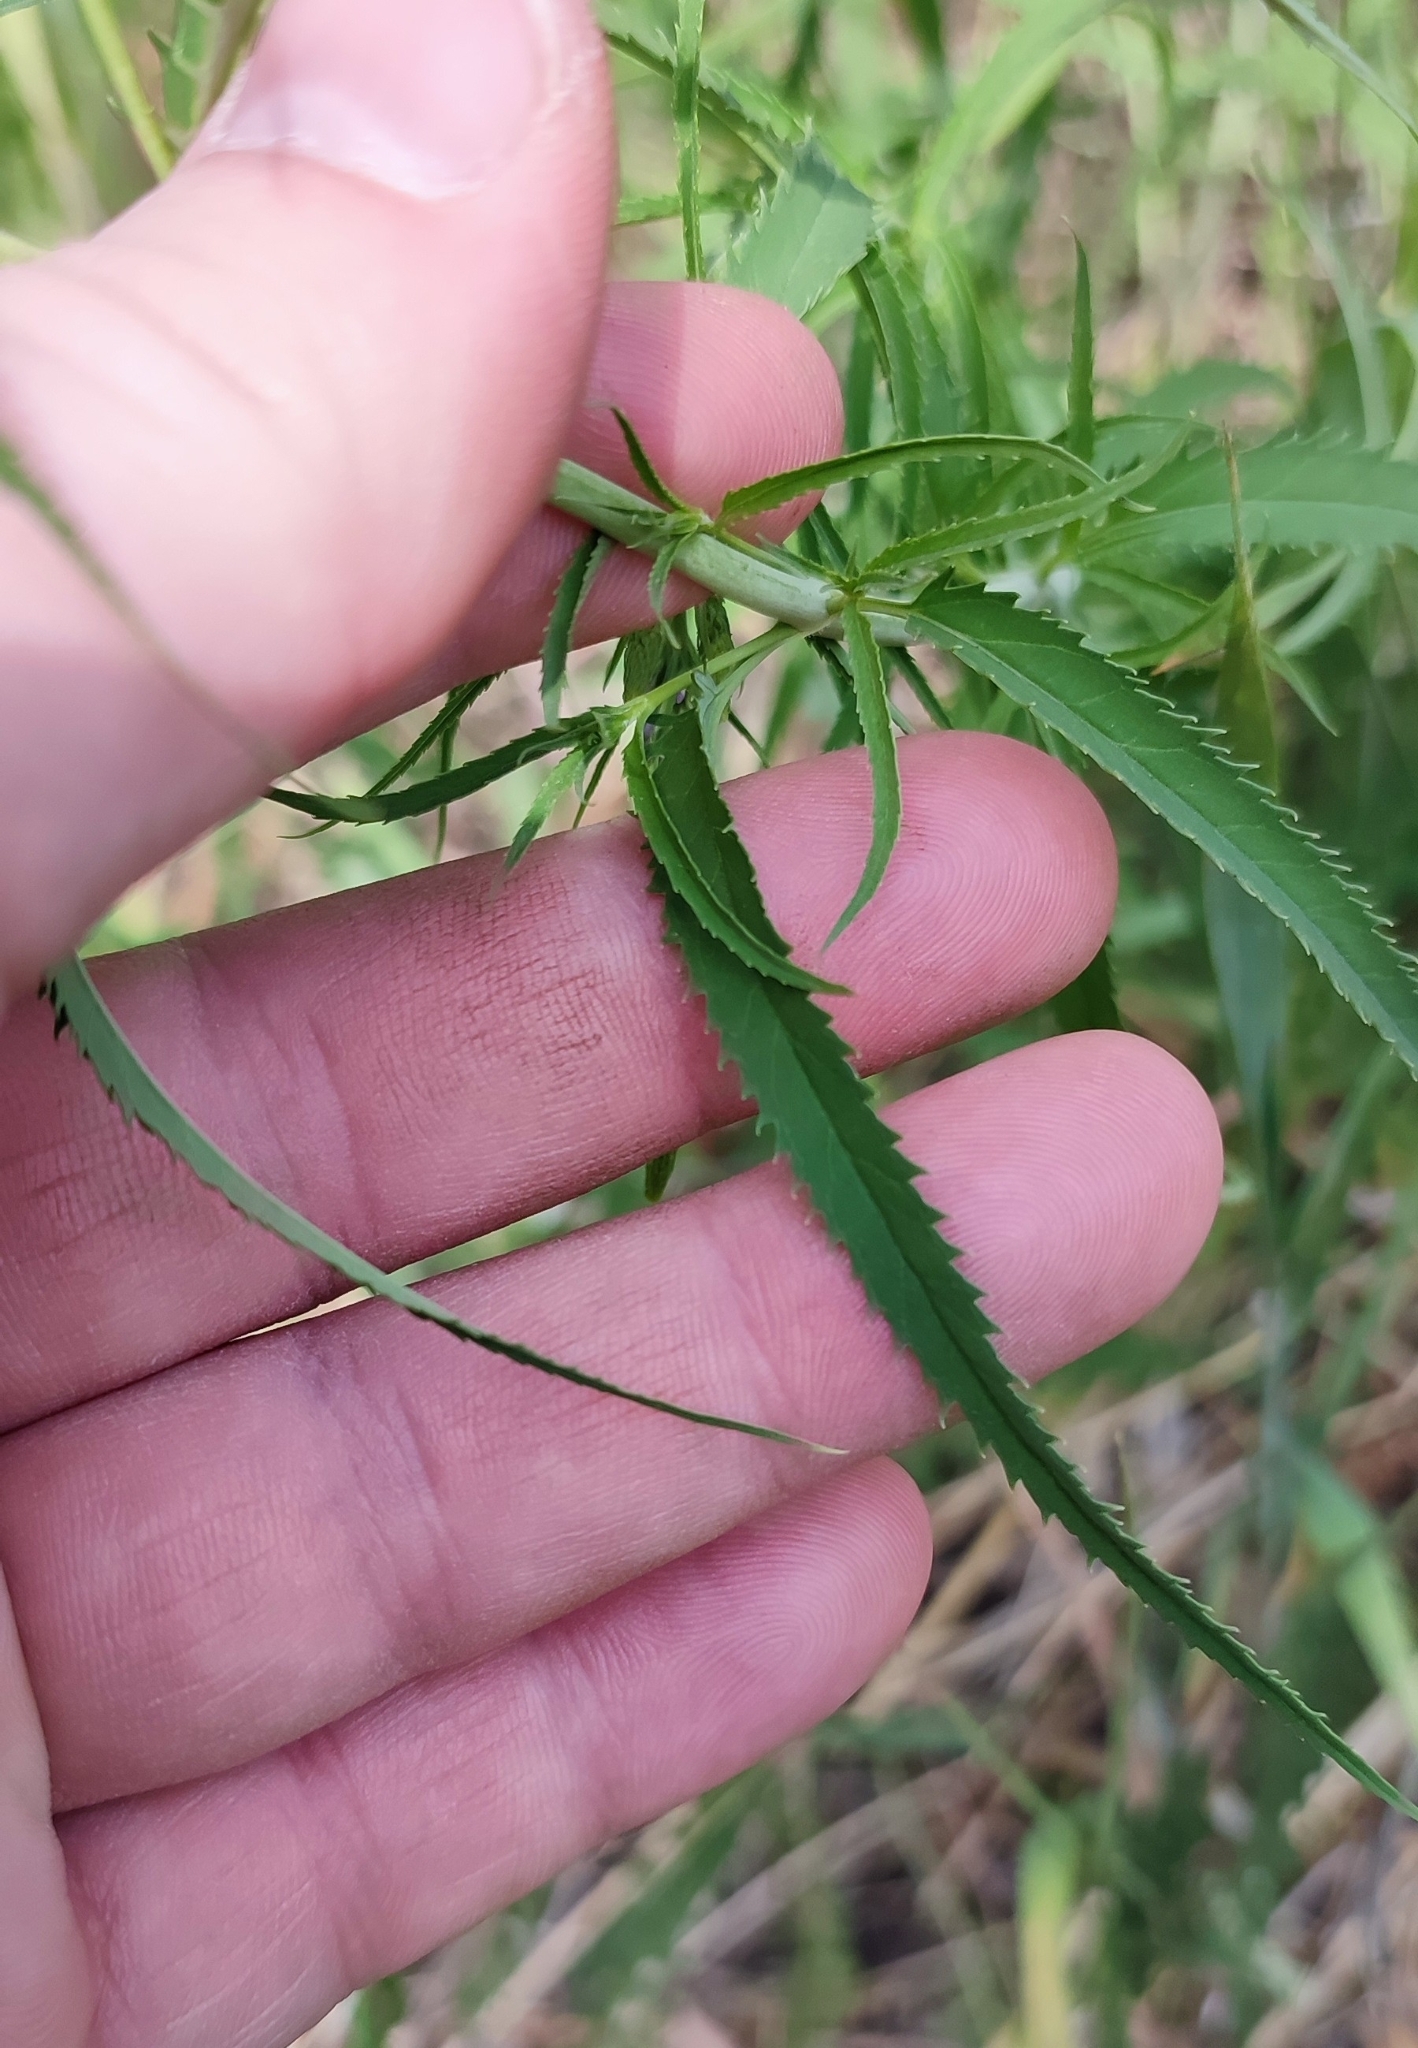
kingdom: Plantae
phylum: Tracheophyta
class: Magnoliopsida
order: Lamiales
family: Plantaginaceae
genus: Veronica
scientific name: Veronica longifolia
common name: Garden speedwell
